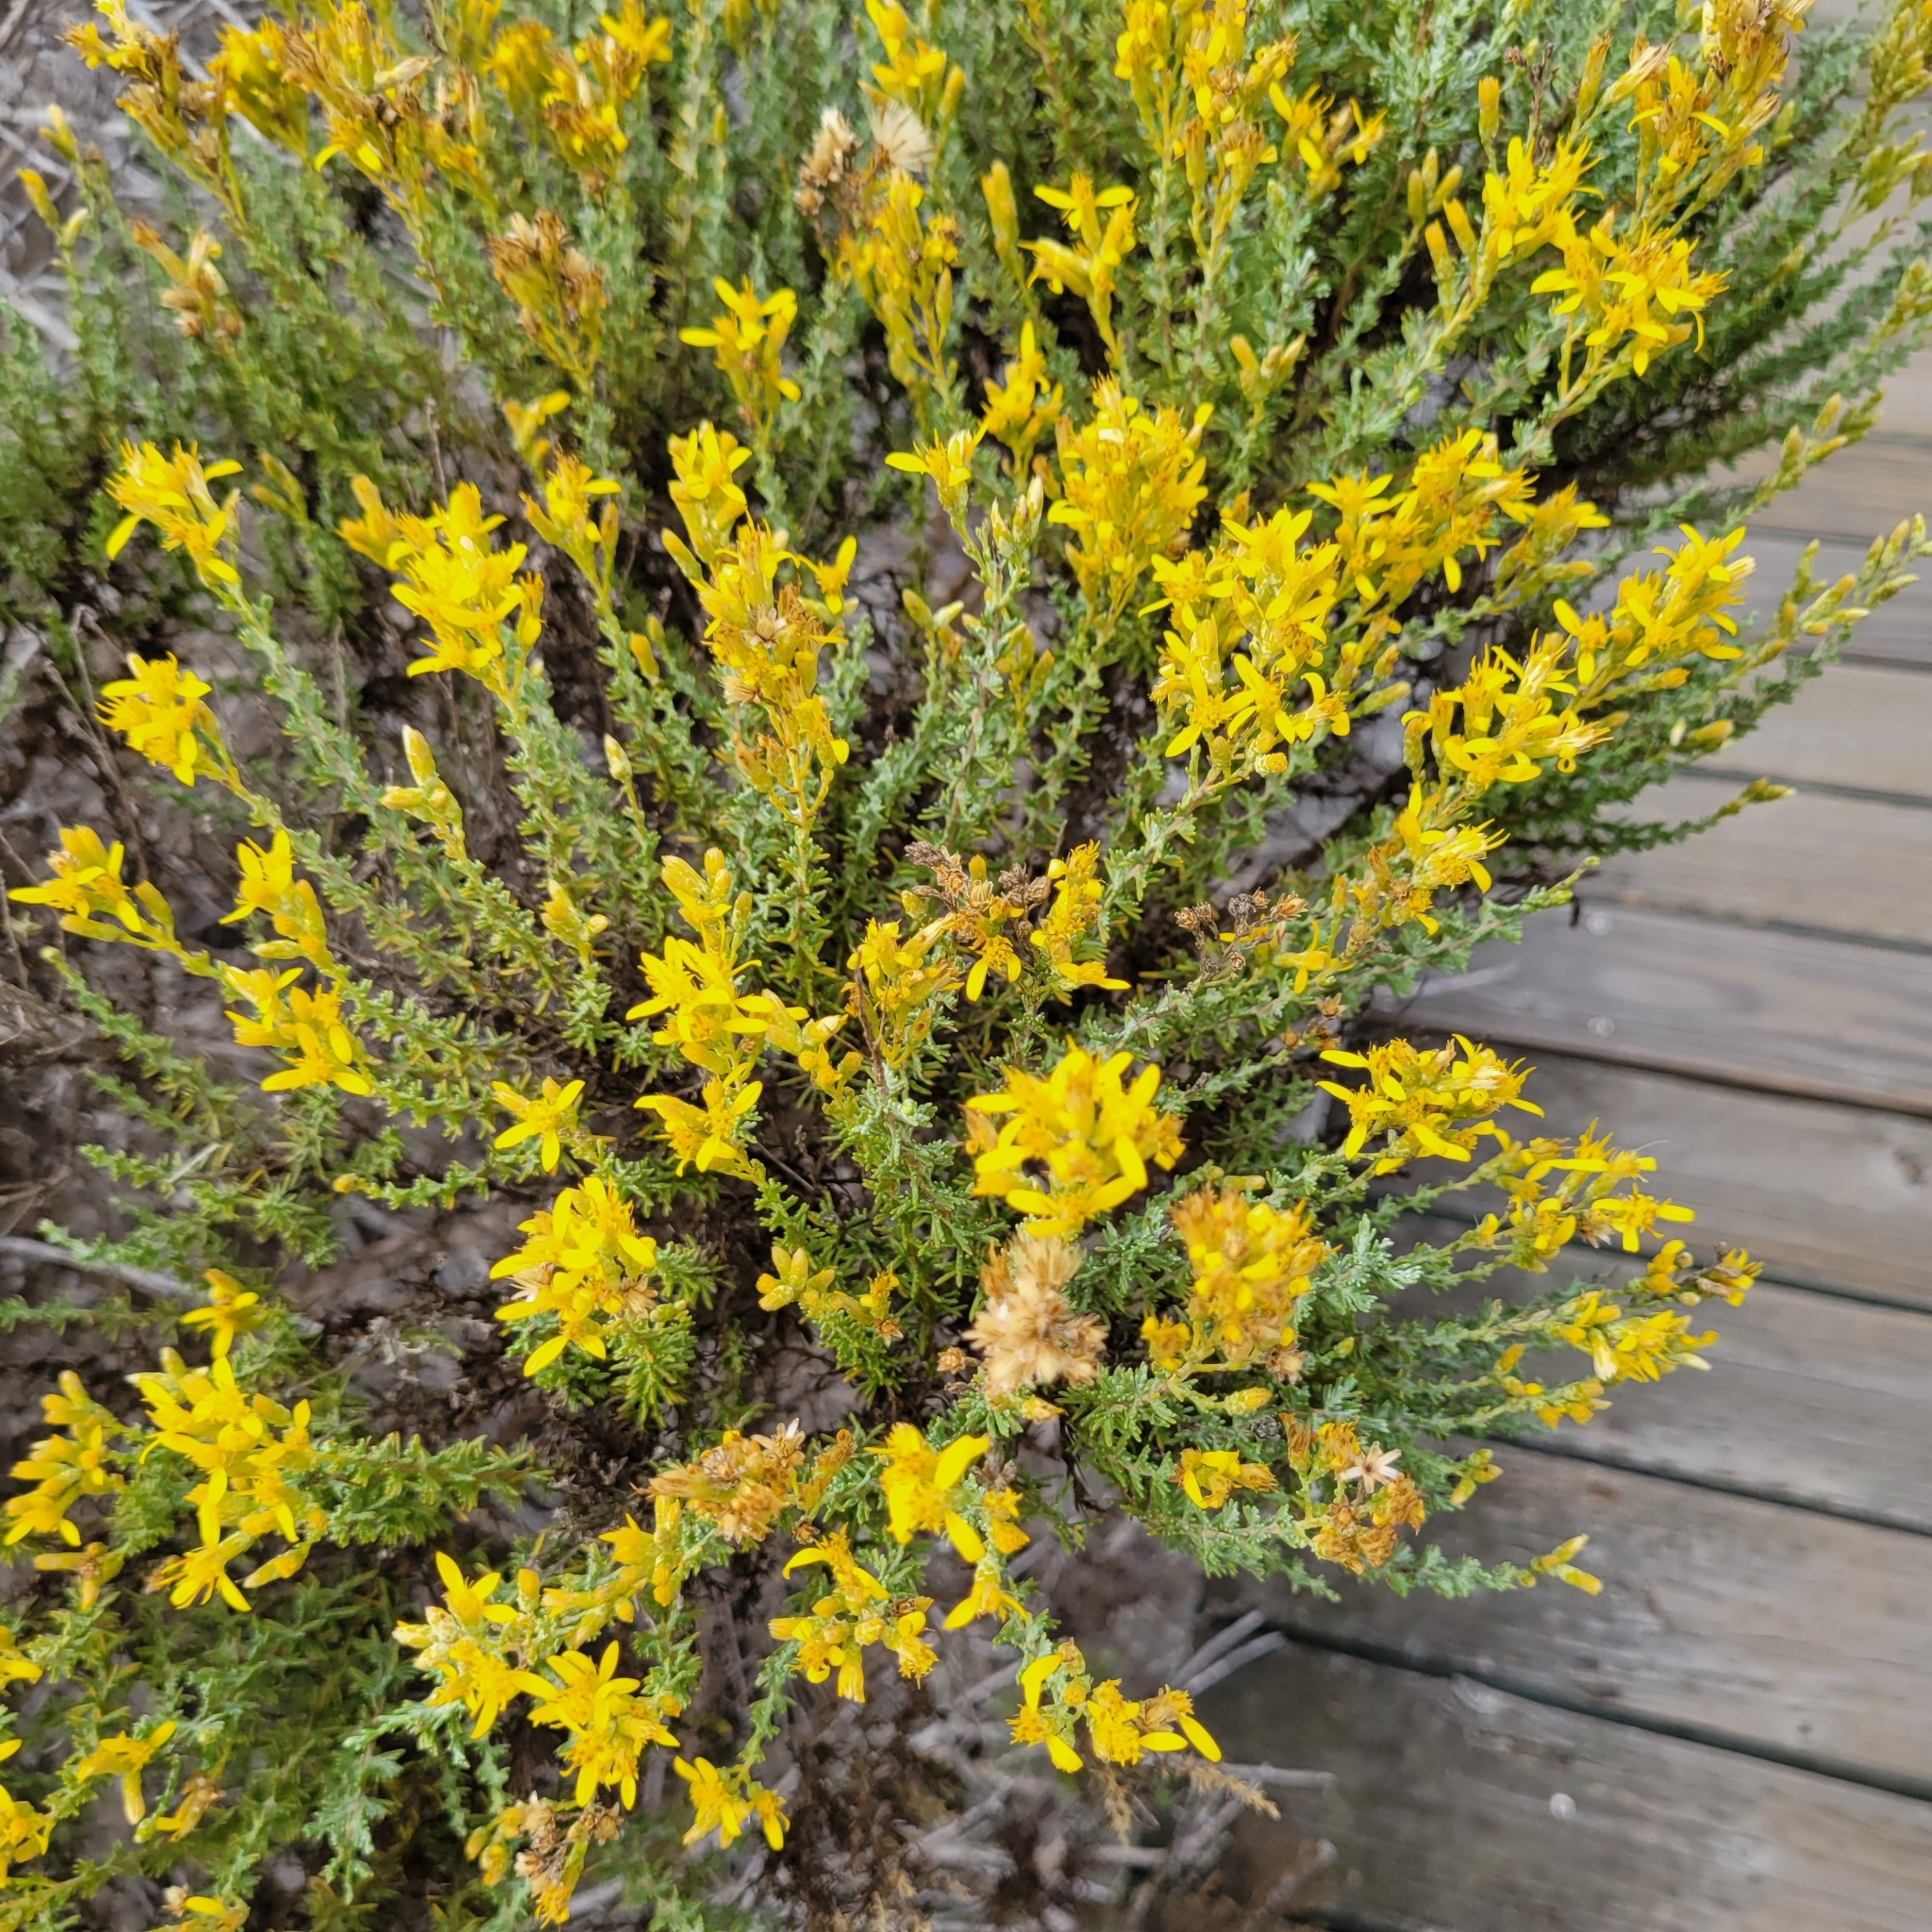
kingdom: Plantae
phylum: Tracheophyta
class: Magnoliopsida
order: Asterales
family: Asteraceae
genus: Ericameria
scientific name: Ericameria ericoides
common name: California goldenbush
